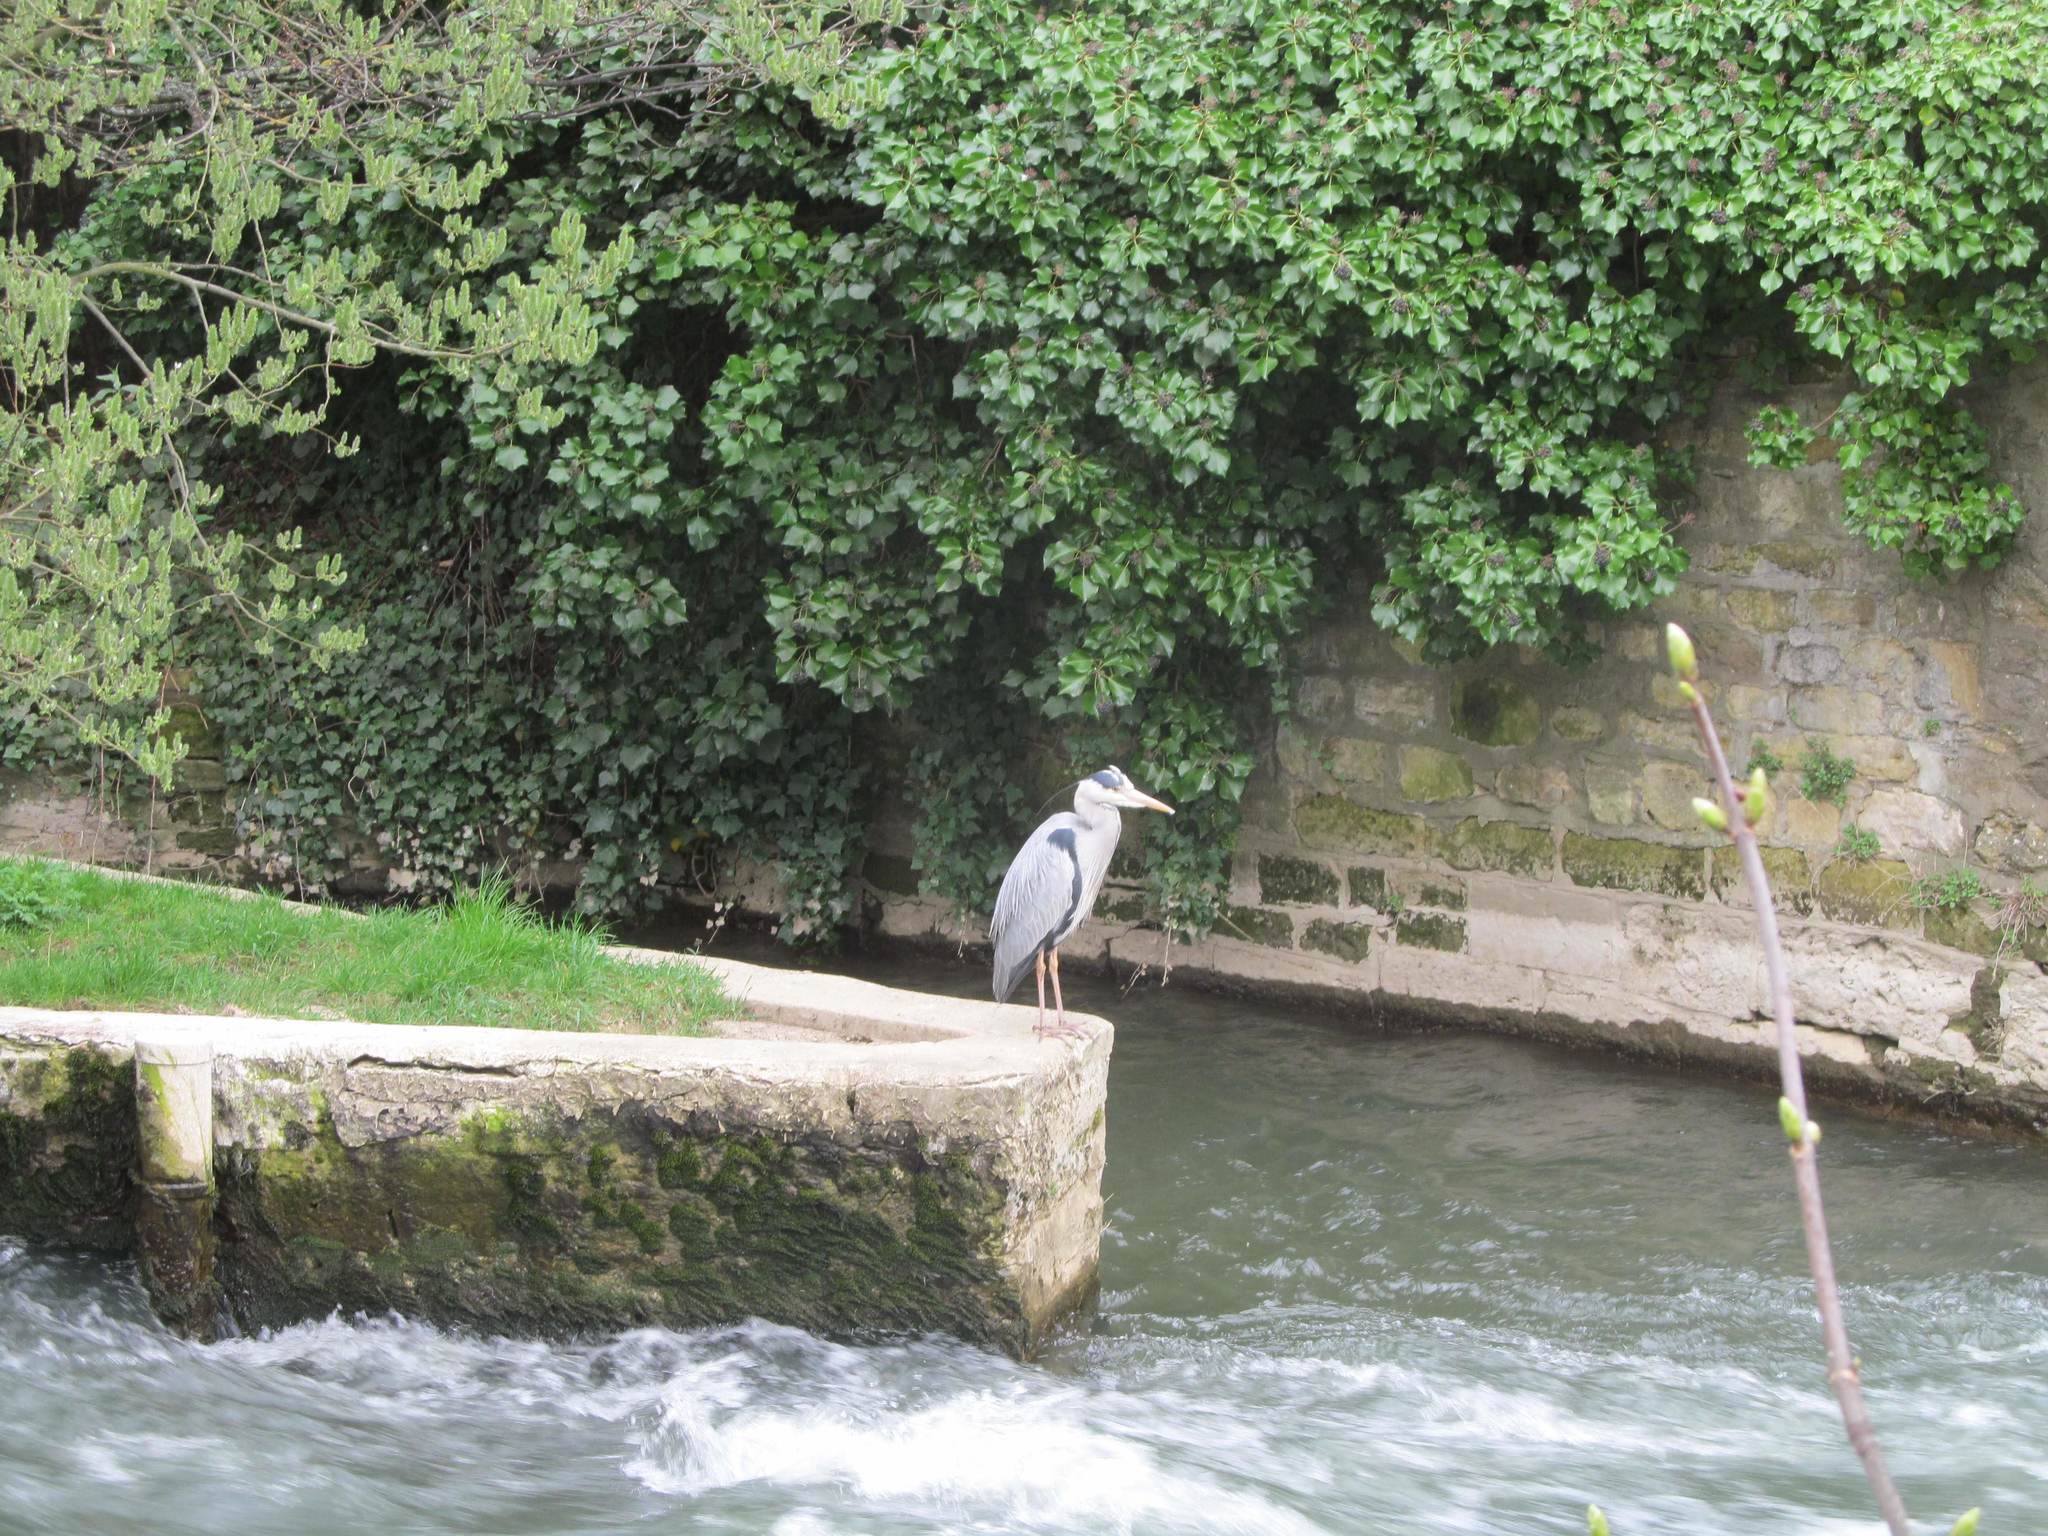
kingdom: Animalia
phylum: Chordata
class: Aves
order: Pelecaniformes
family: Ardeidae
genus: Ardea
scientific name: Ardea cinerea
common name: Grey heron
